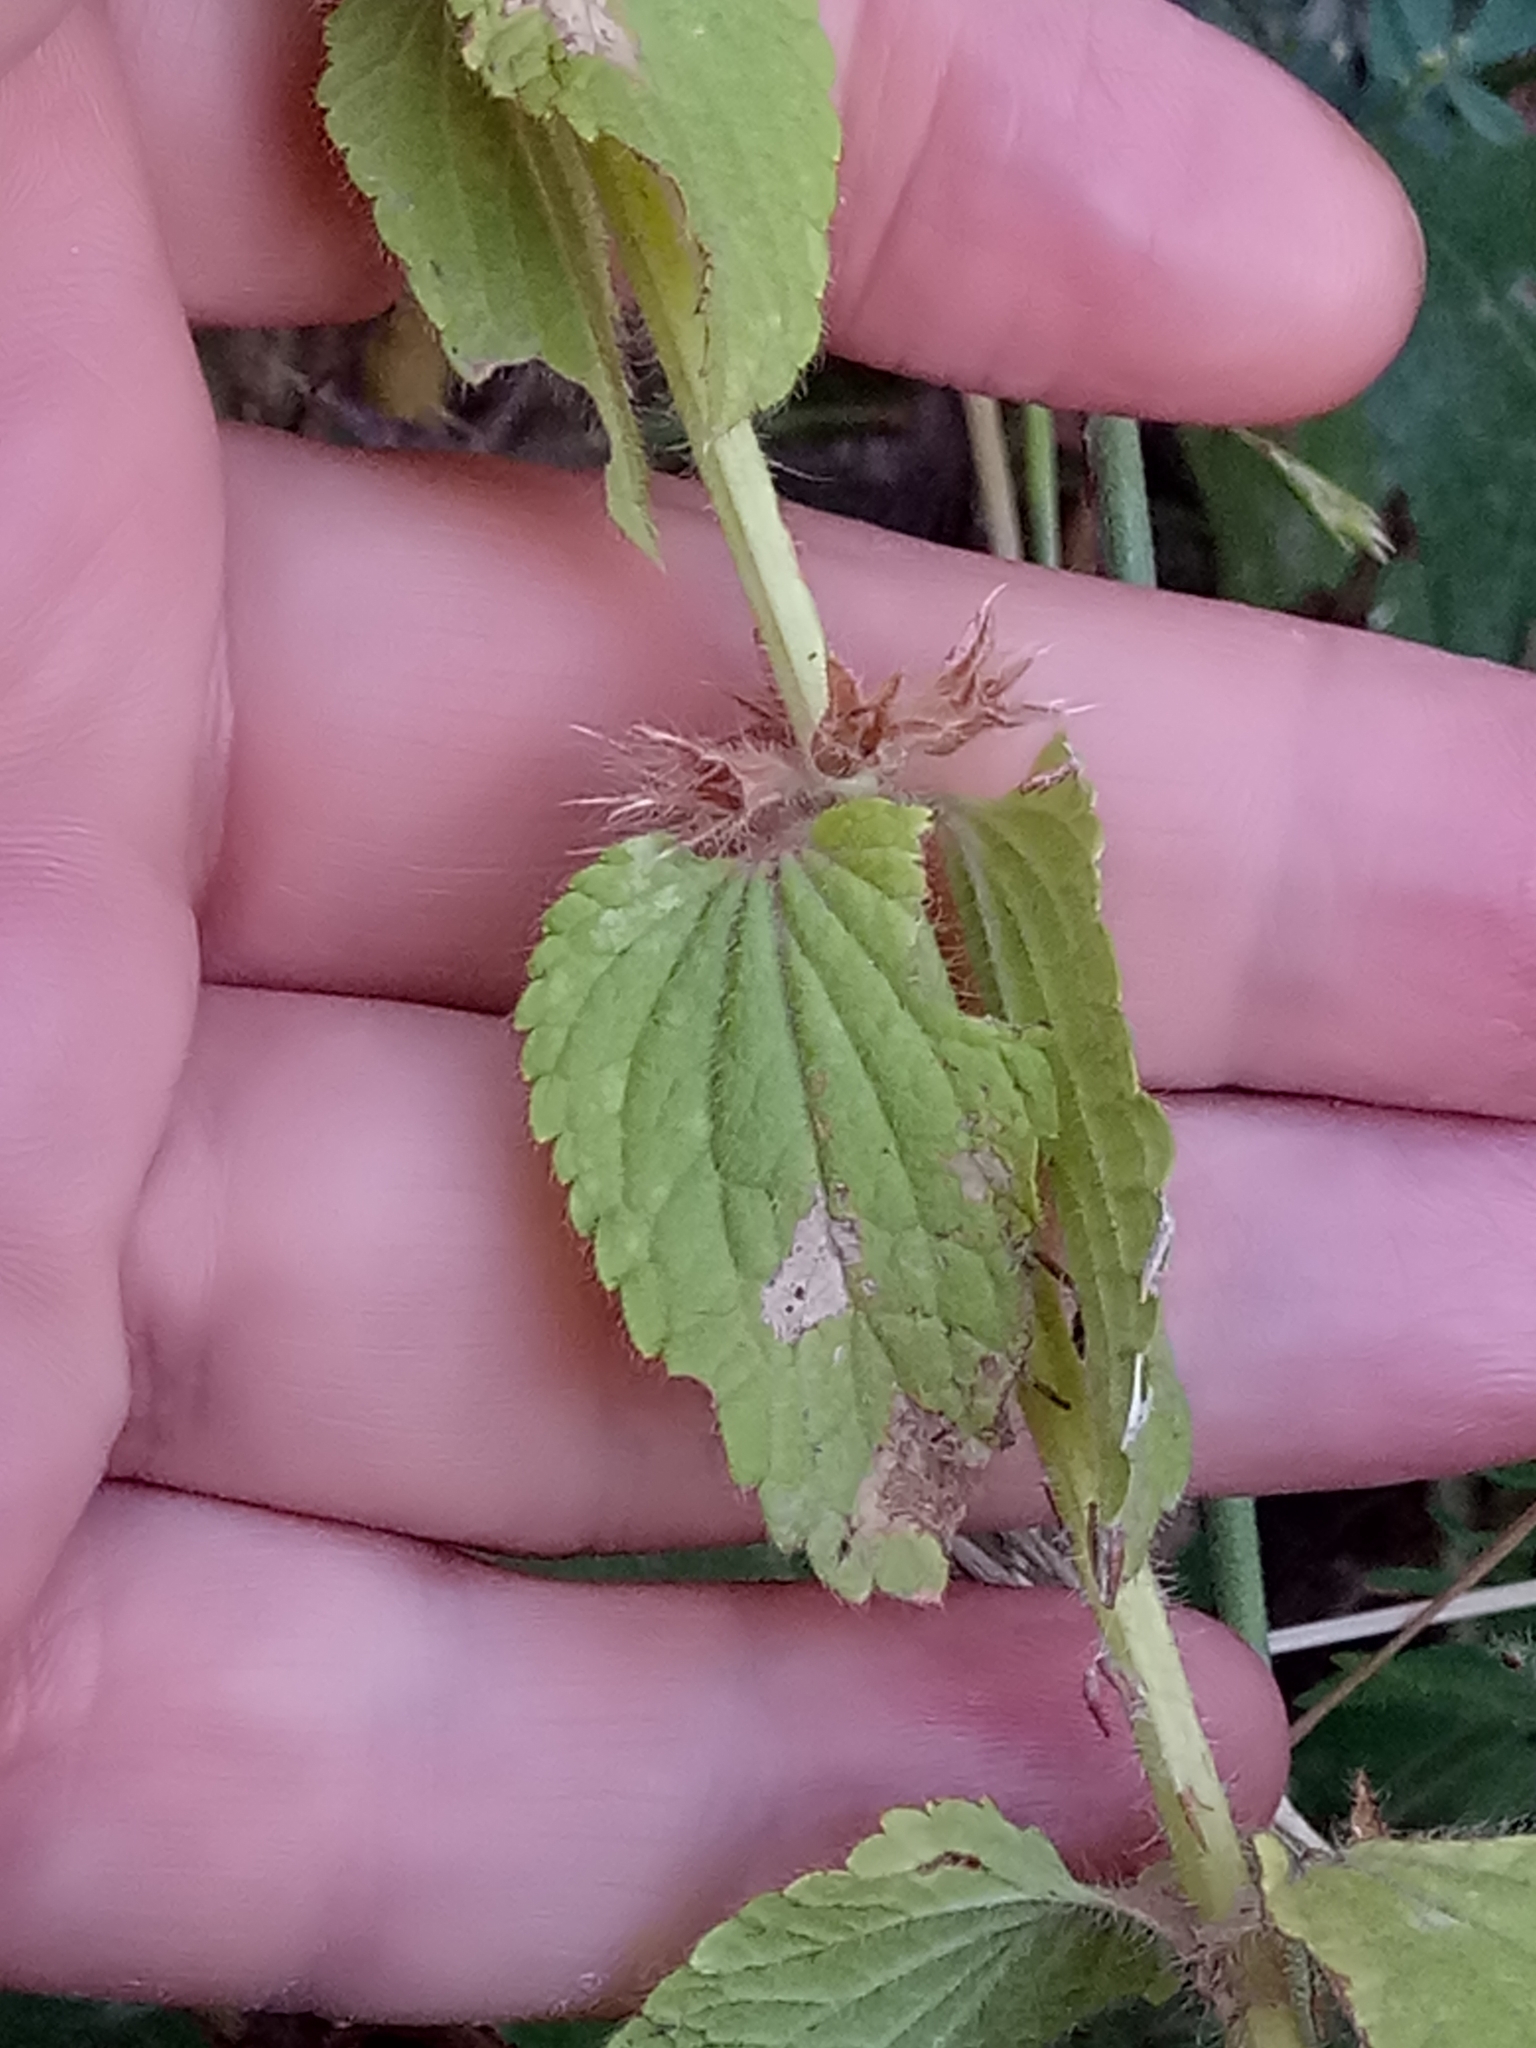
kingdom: Plantae
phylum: Tracheophyta
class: Magnoliopsida
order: Lamiales
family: Lamiaceae
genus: Stachys
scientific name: Stachys ocymastrum
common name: Italian hedgenettle
